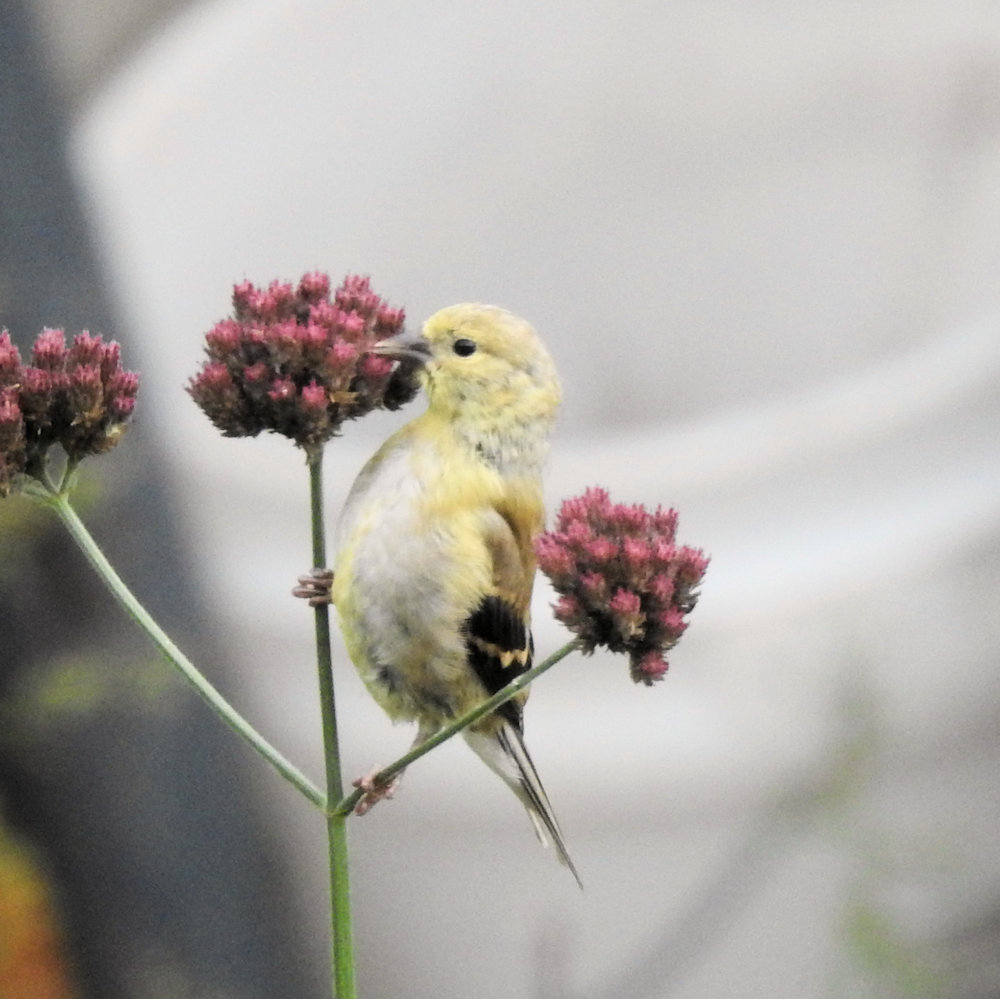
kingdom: Animalia
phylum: Chordata
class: Aves
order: Passeriformes
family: Fringillidae
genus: Spinus
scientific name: Spinus tristis
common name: American goldfinch
